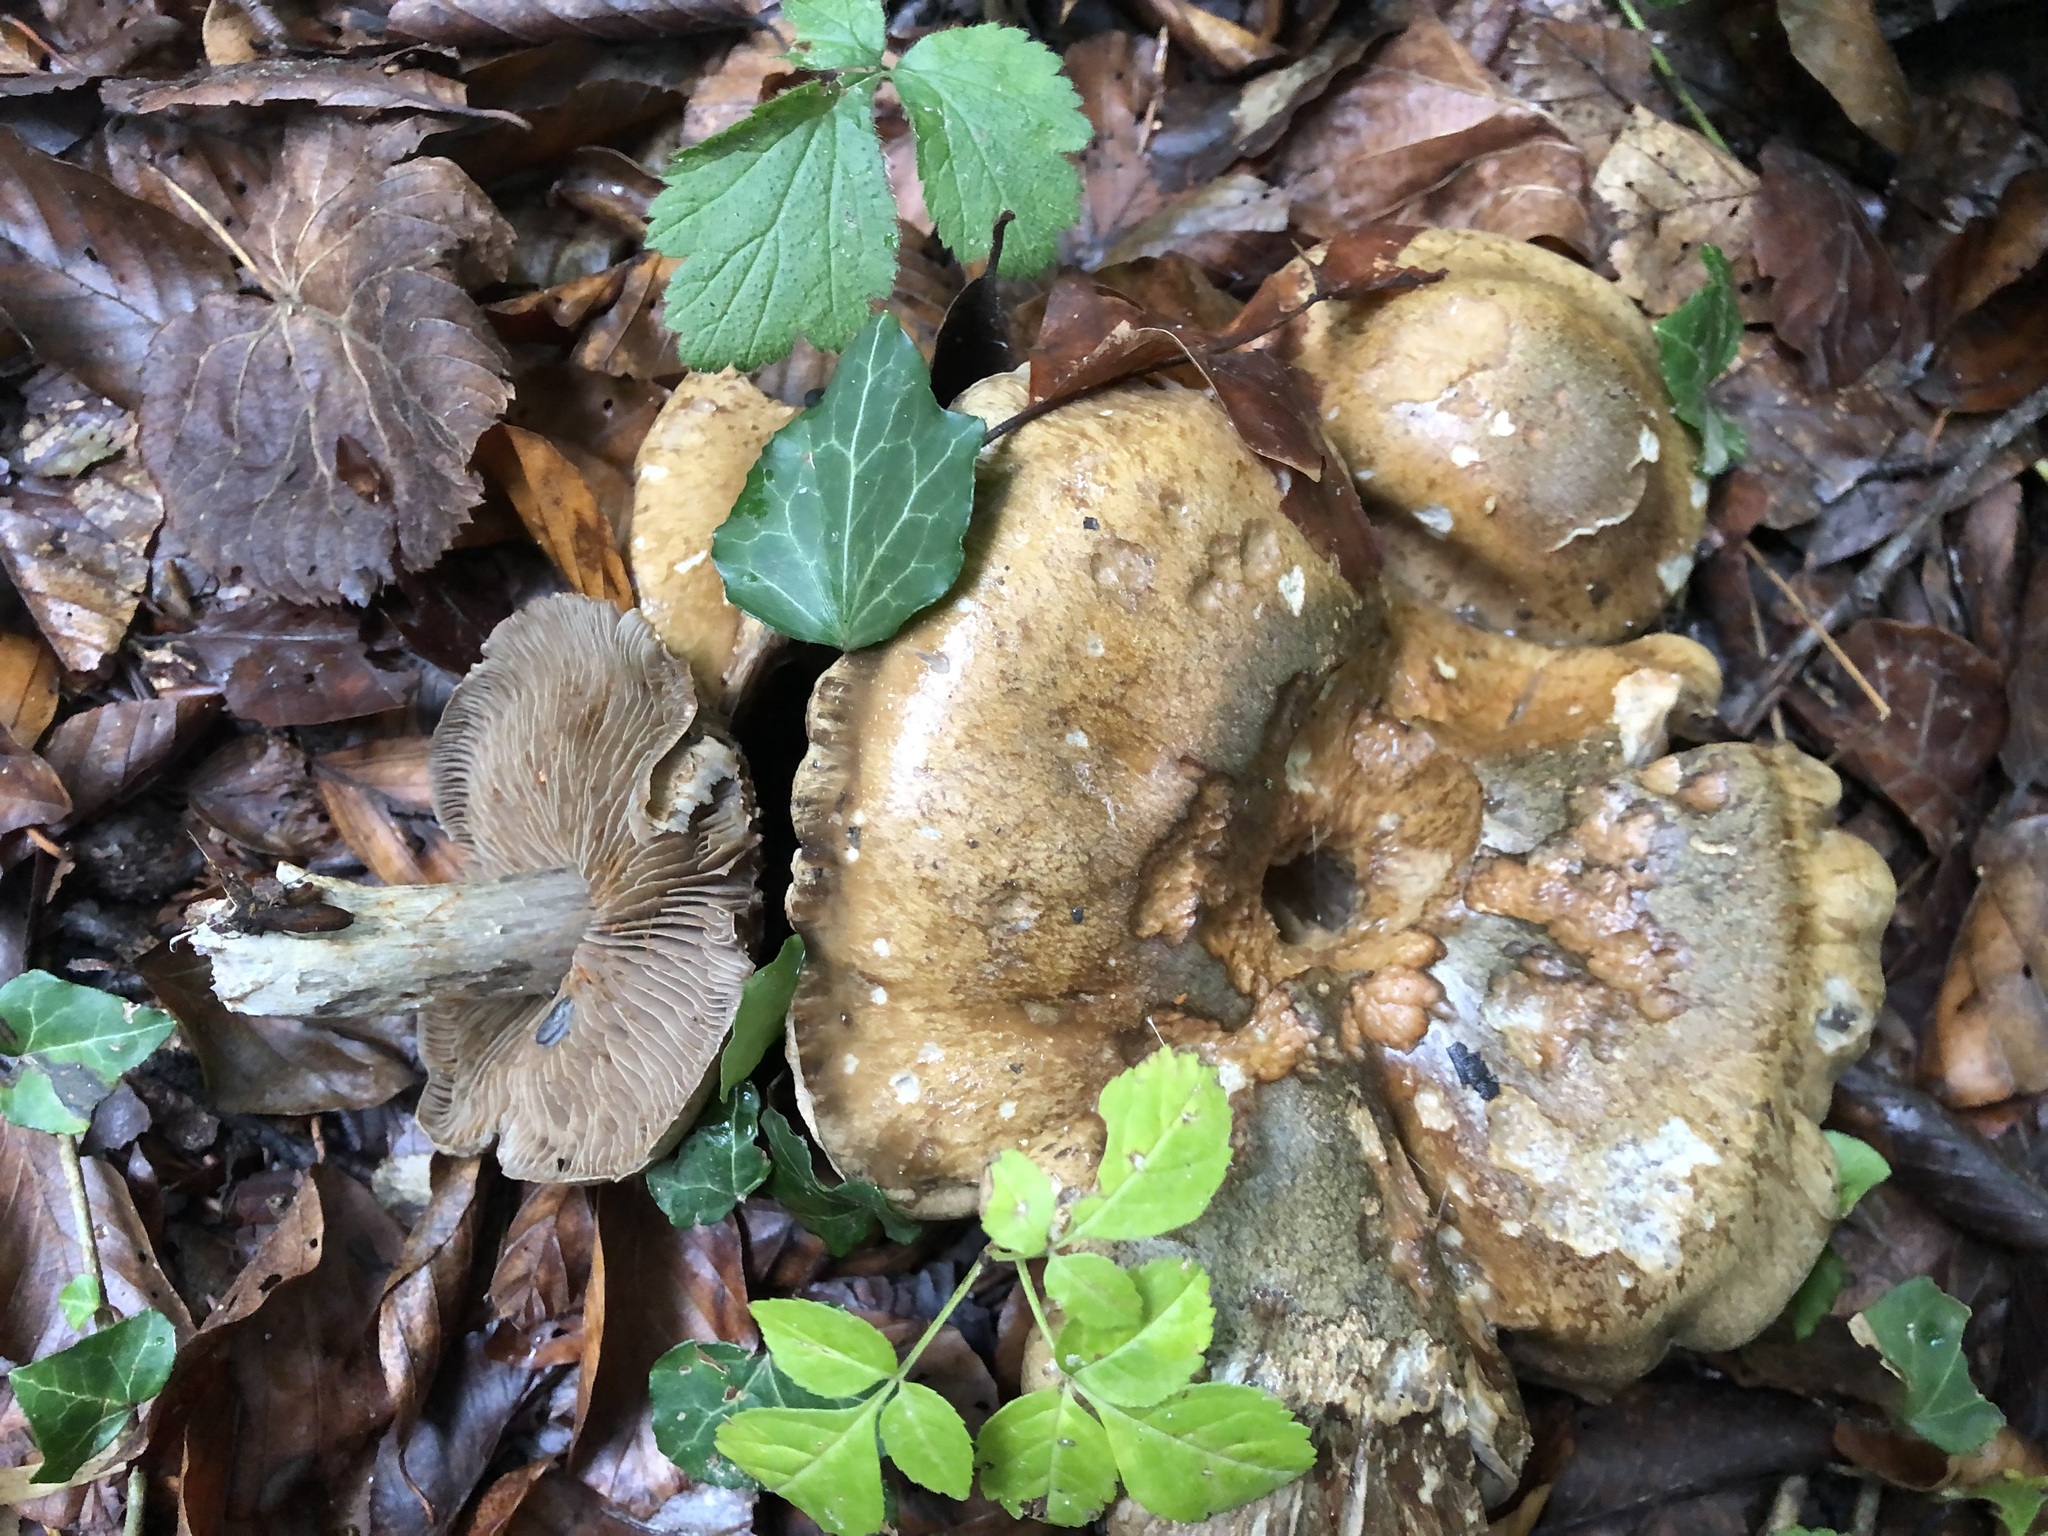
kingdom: Fungi
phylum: Basidiomycota
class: Agaricomycetes
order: Agaricales
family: Cortinariaceae
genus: Cortinarius
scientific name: Cortinarius infractus
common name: Bitter webcap
